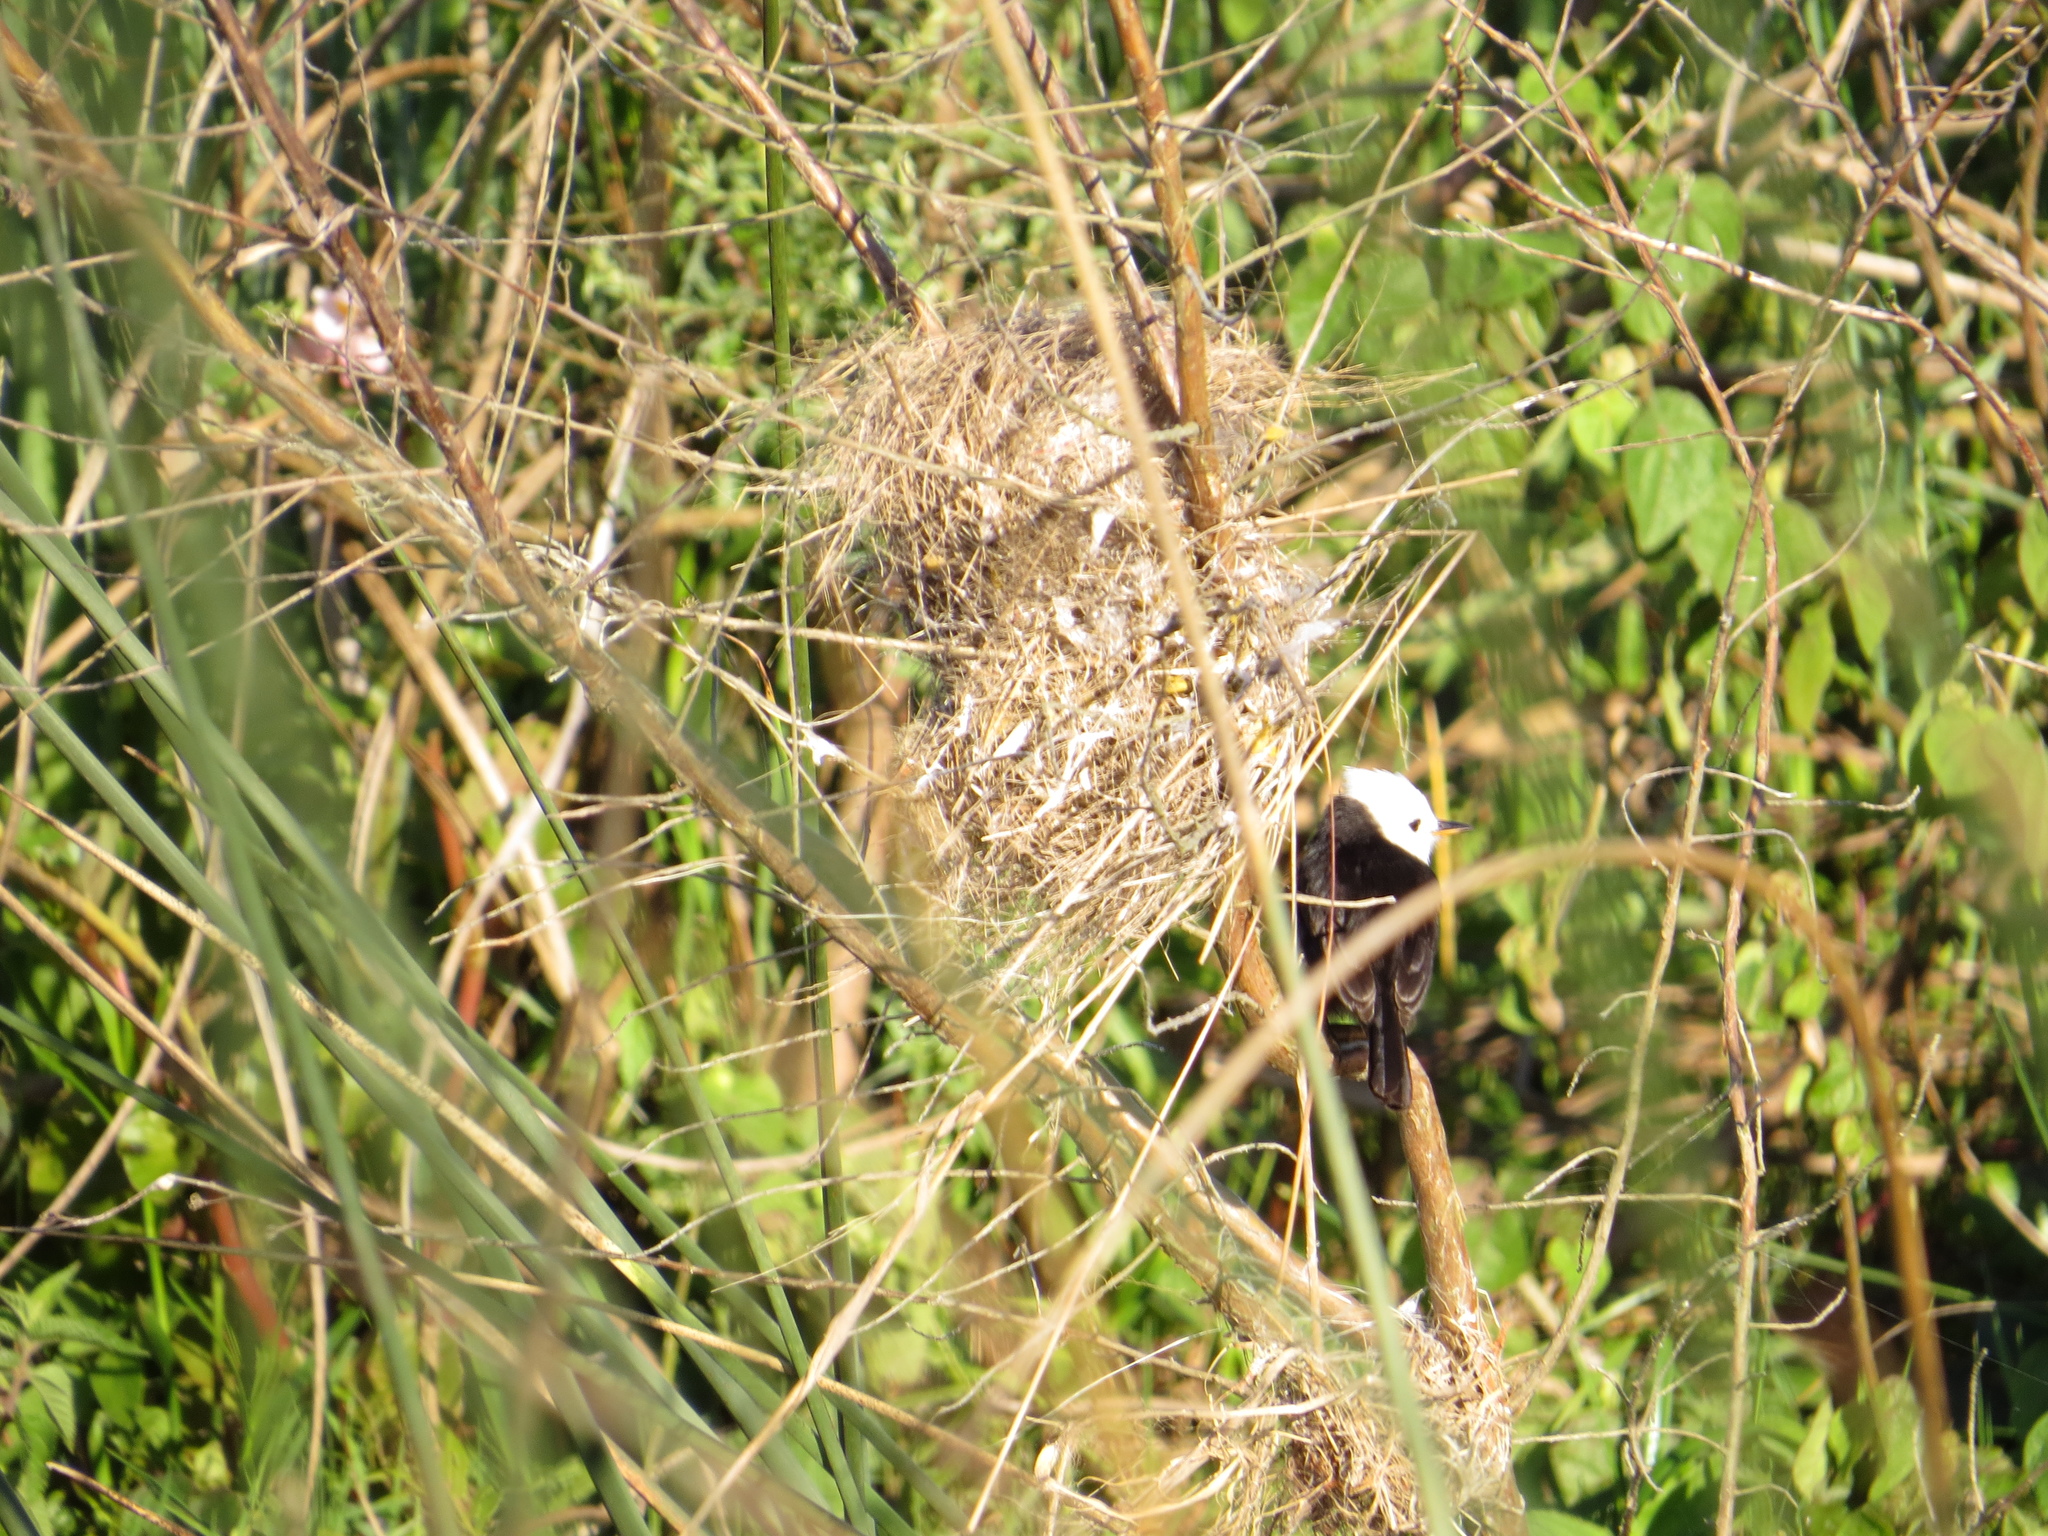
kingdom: Animalia
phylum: Chordata
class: Aves
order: Passeriformes
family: Tyrannidae
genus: Arundinicola
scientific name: Arundinicola leucocephala
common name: White-headed marsh tyrant
